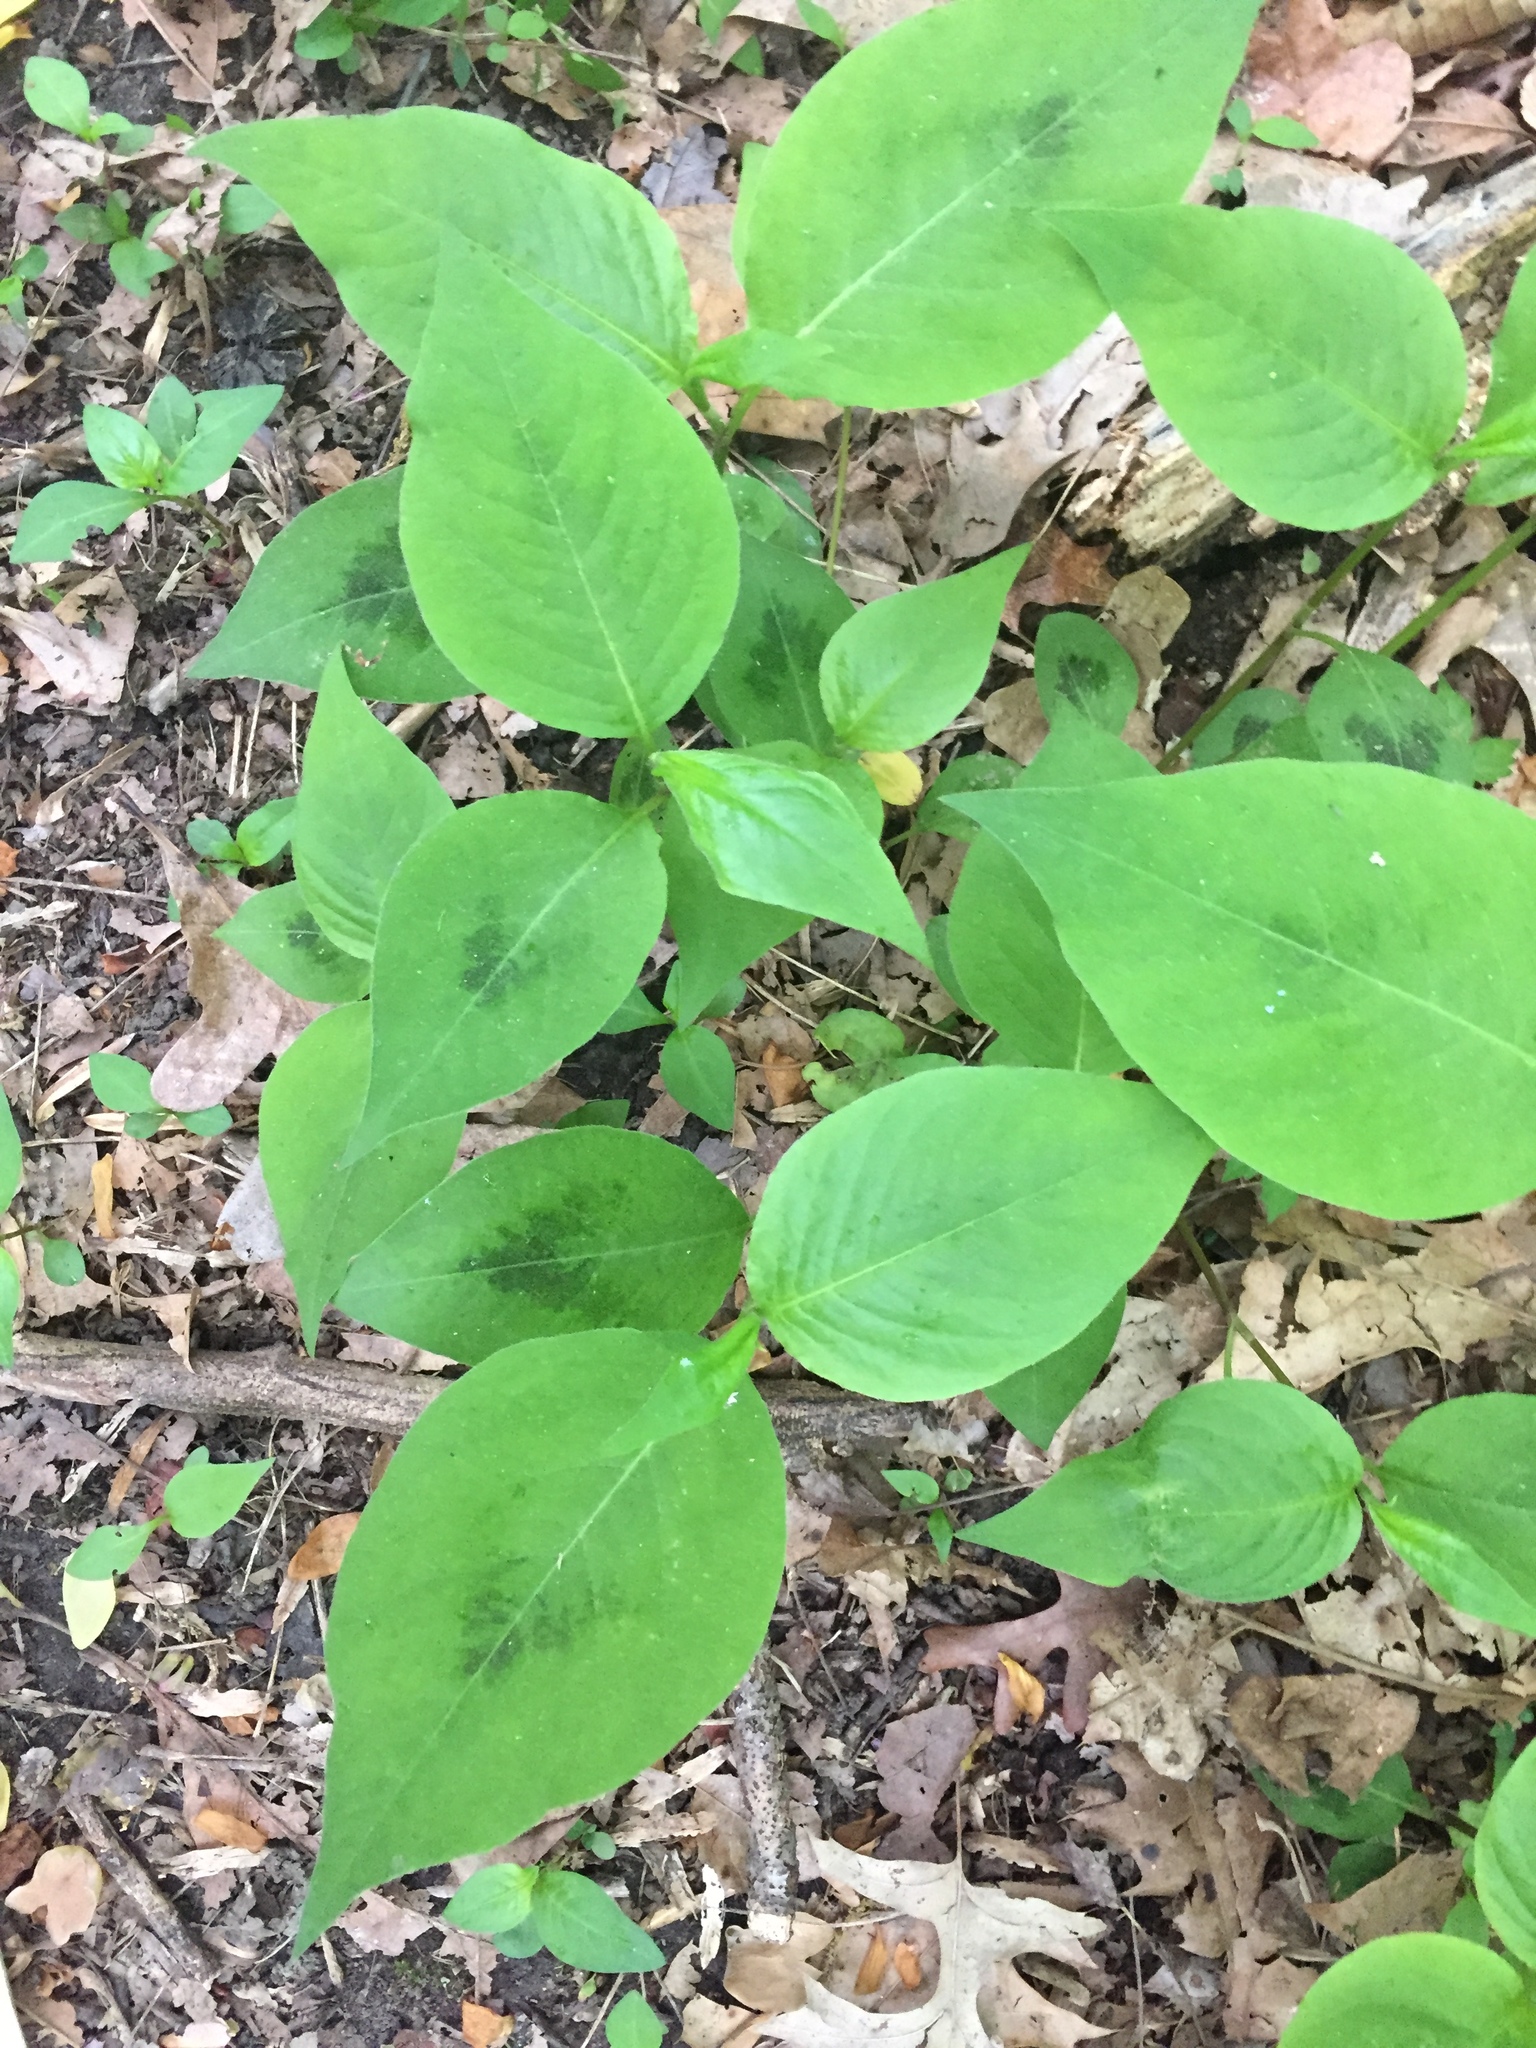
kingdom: Plantae
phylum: Tracheophyta
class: Magnoliopsida
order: Caryophyllales
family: Polygonaceae
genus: Persicaria
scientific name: Persicaria virginiana
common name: Jumpseed
